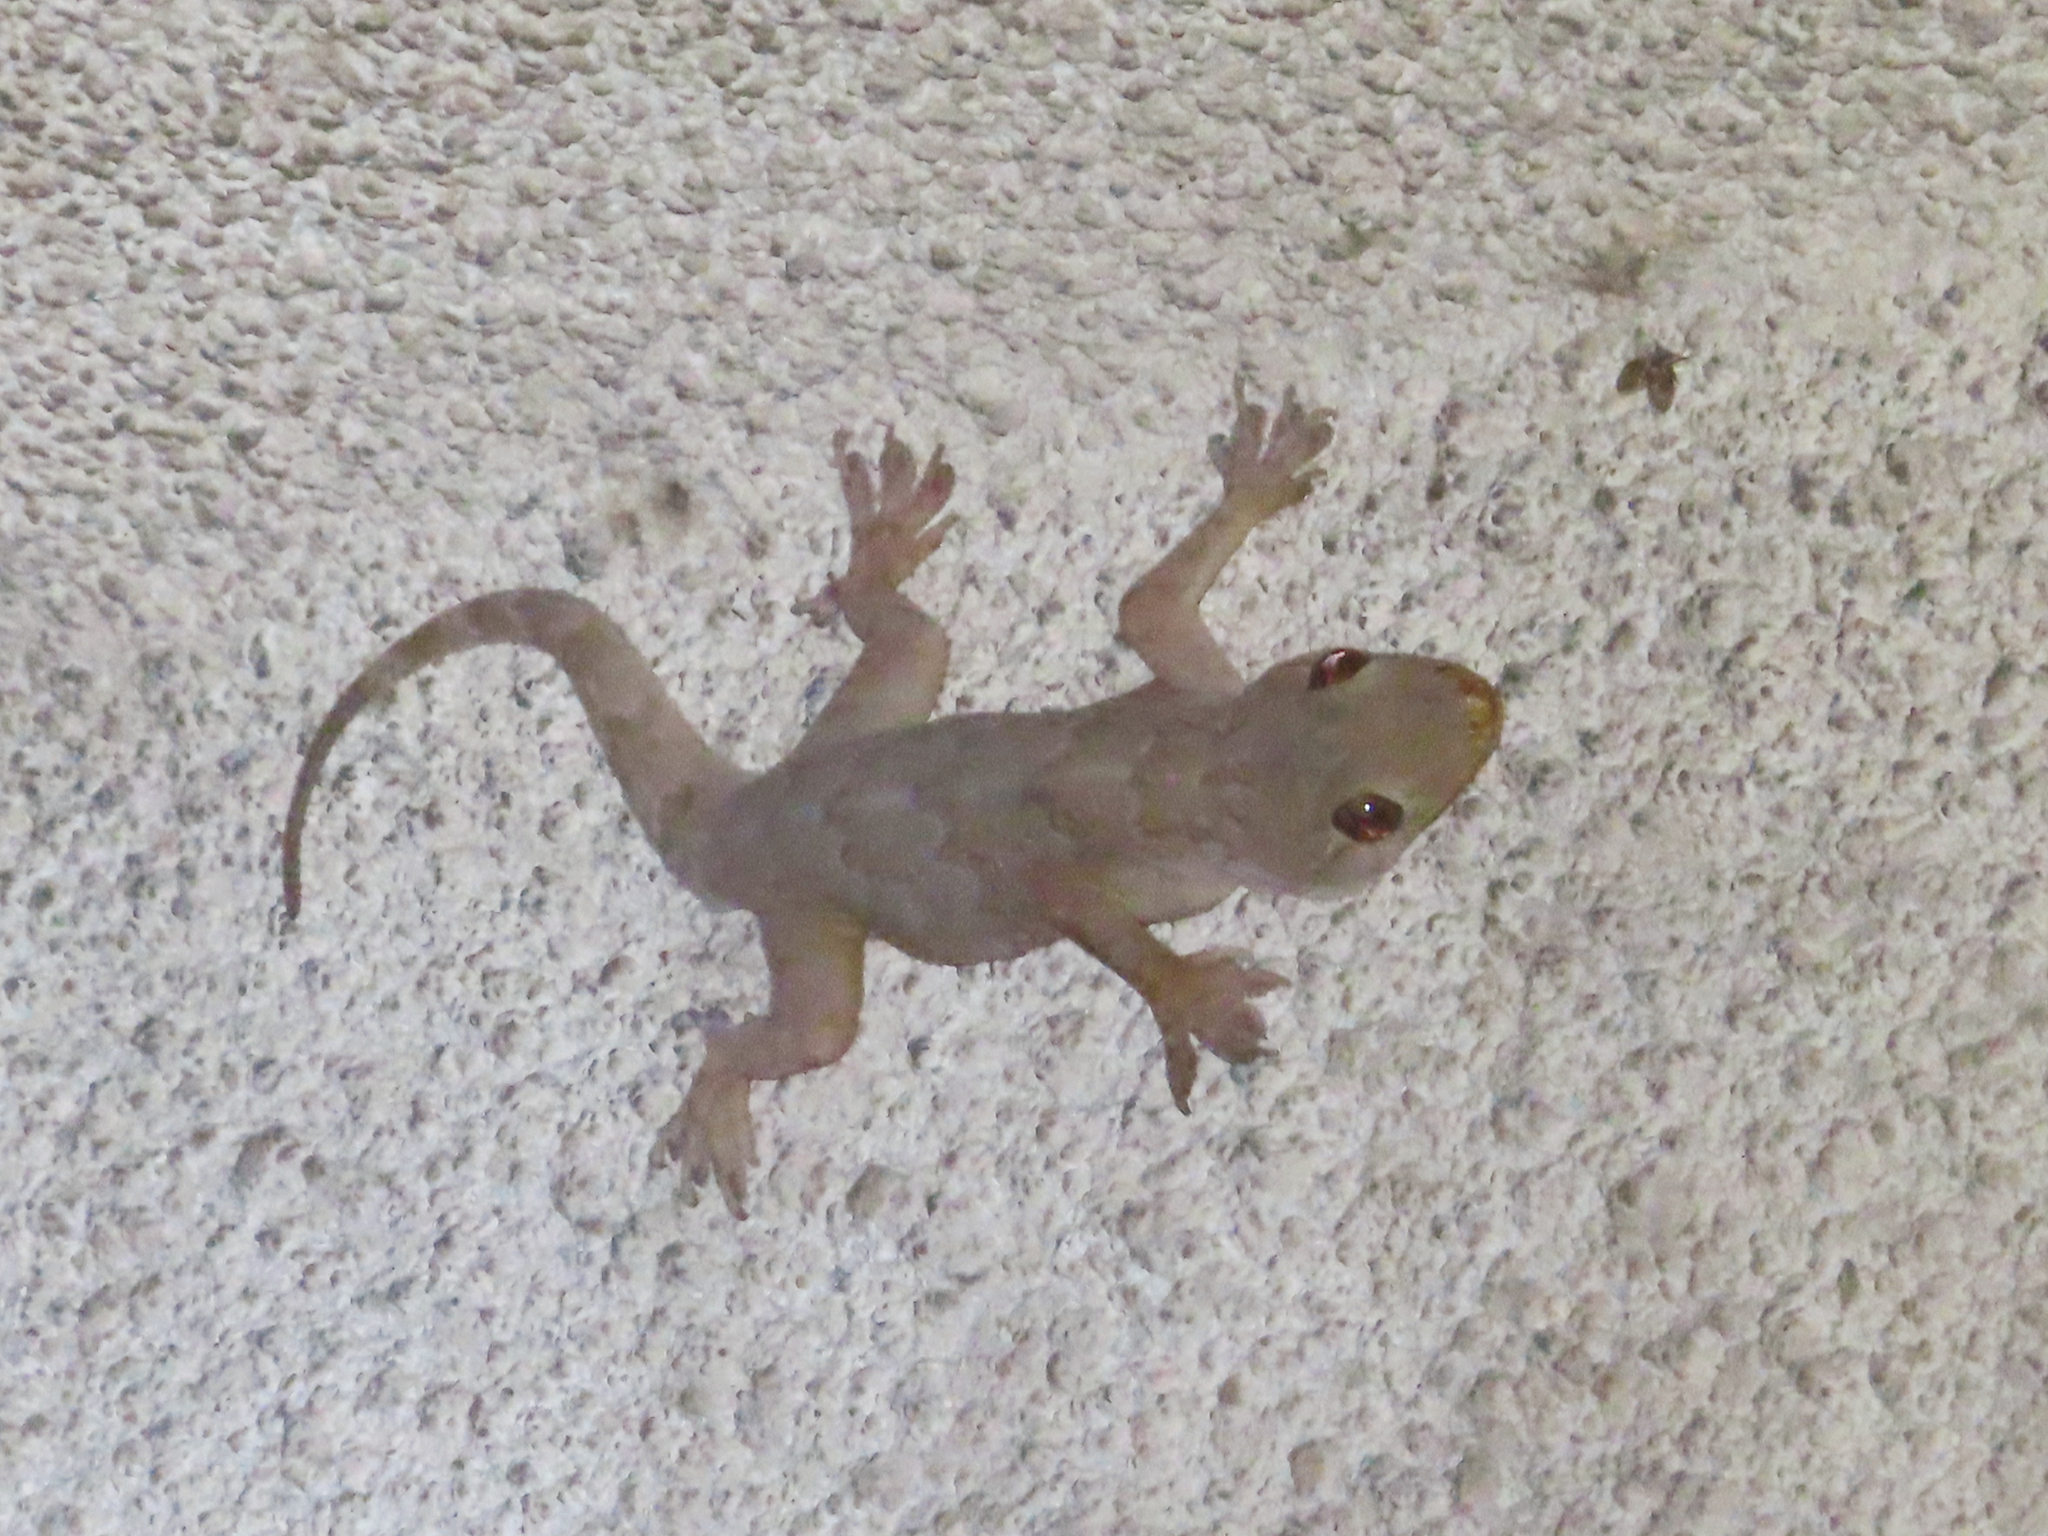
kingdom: Animalia
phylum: Chordata
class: Squamata
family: Gekkonidae
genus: Hemidactylus
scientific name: Hemidactylus flaviviridis
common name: Northern house gecko
